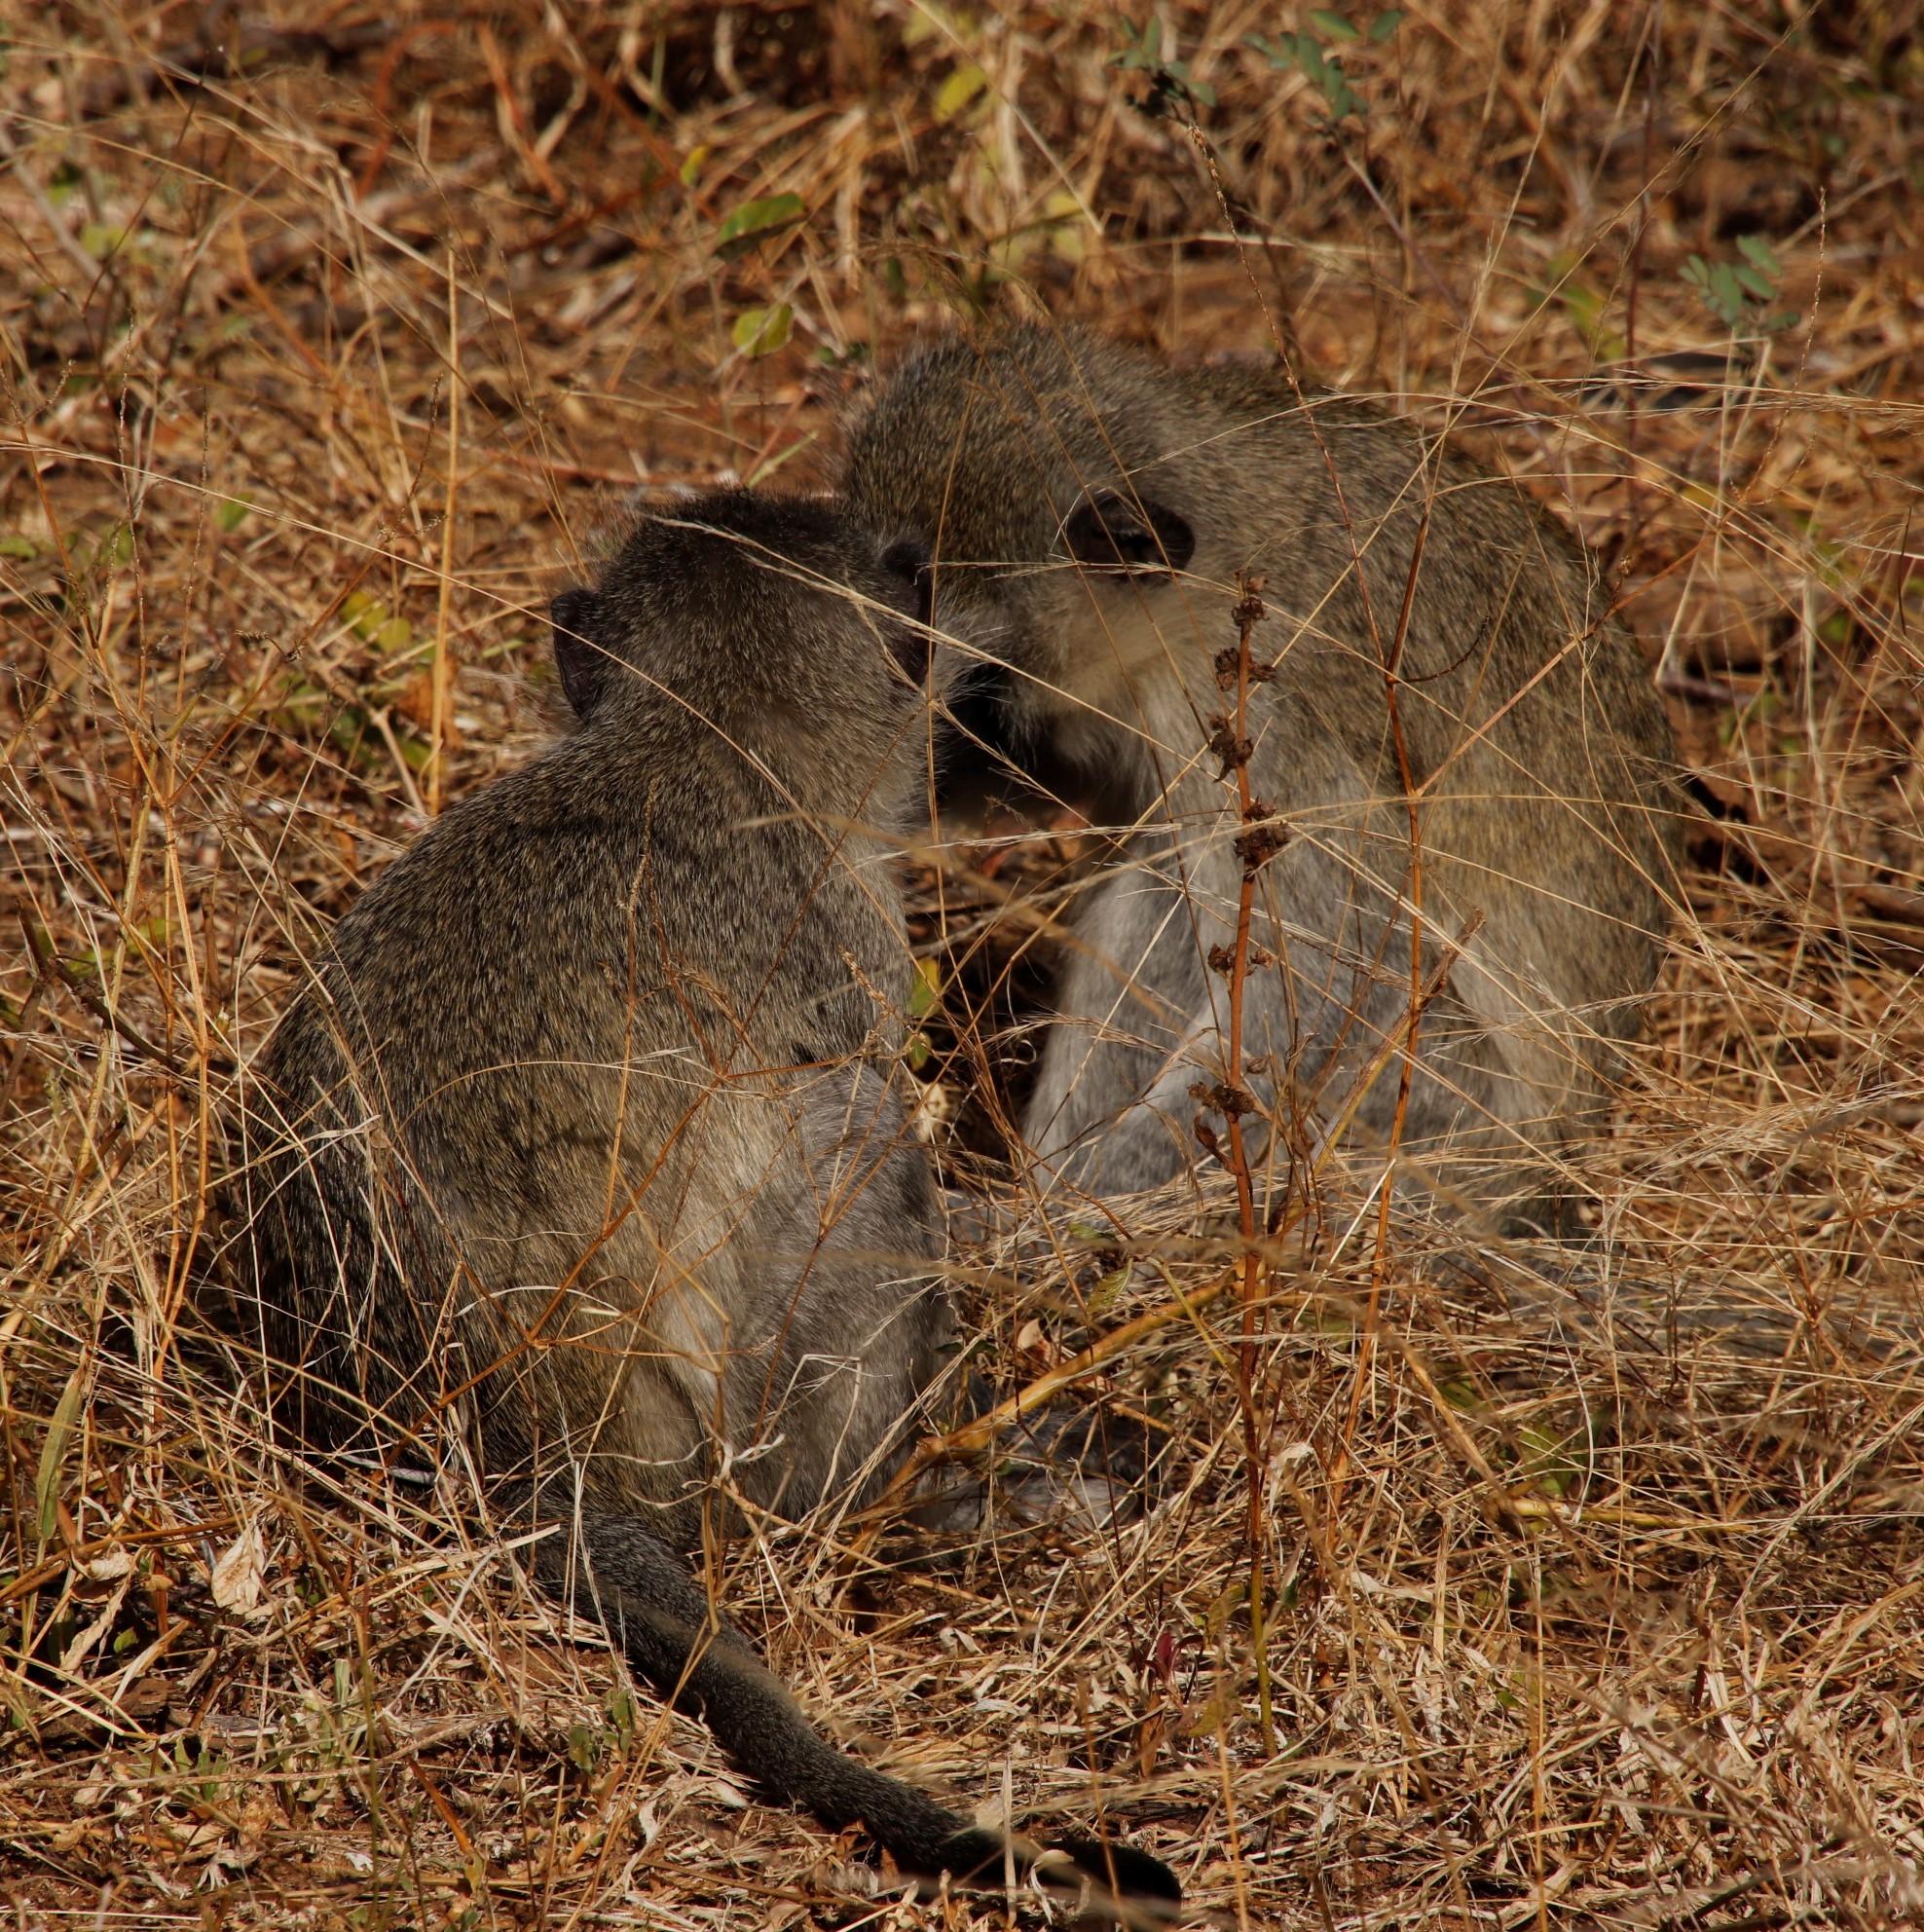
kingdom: Animalia
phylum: Chordata
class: Mammalia
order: Primates
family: Cercopithecidae
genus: Chlorocebus
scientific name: Chlorocebus pygerythrus
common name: Vervet monkey
